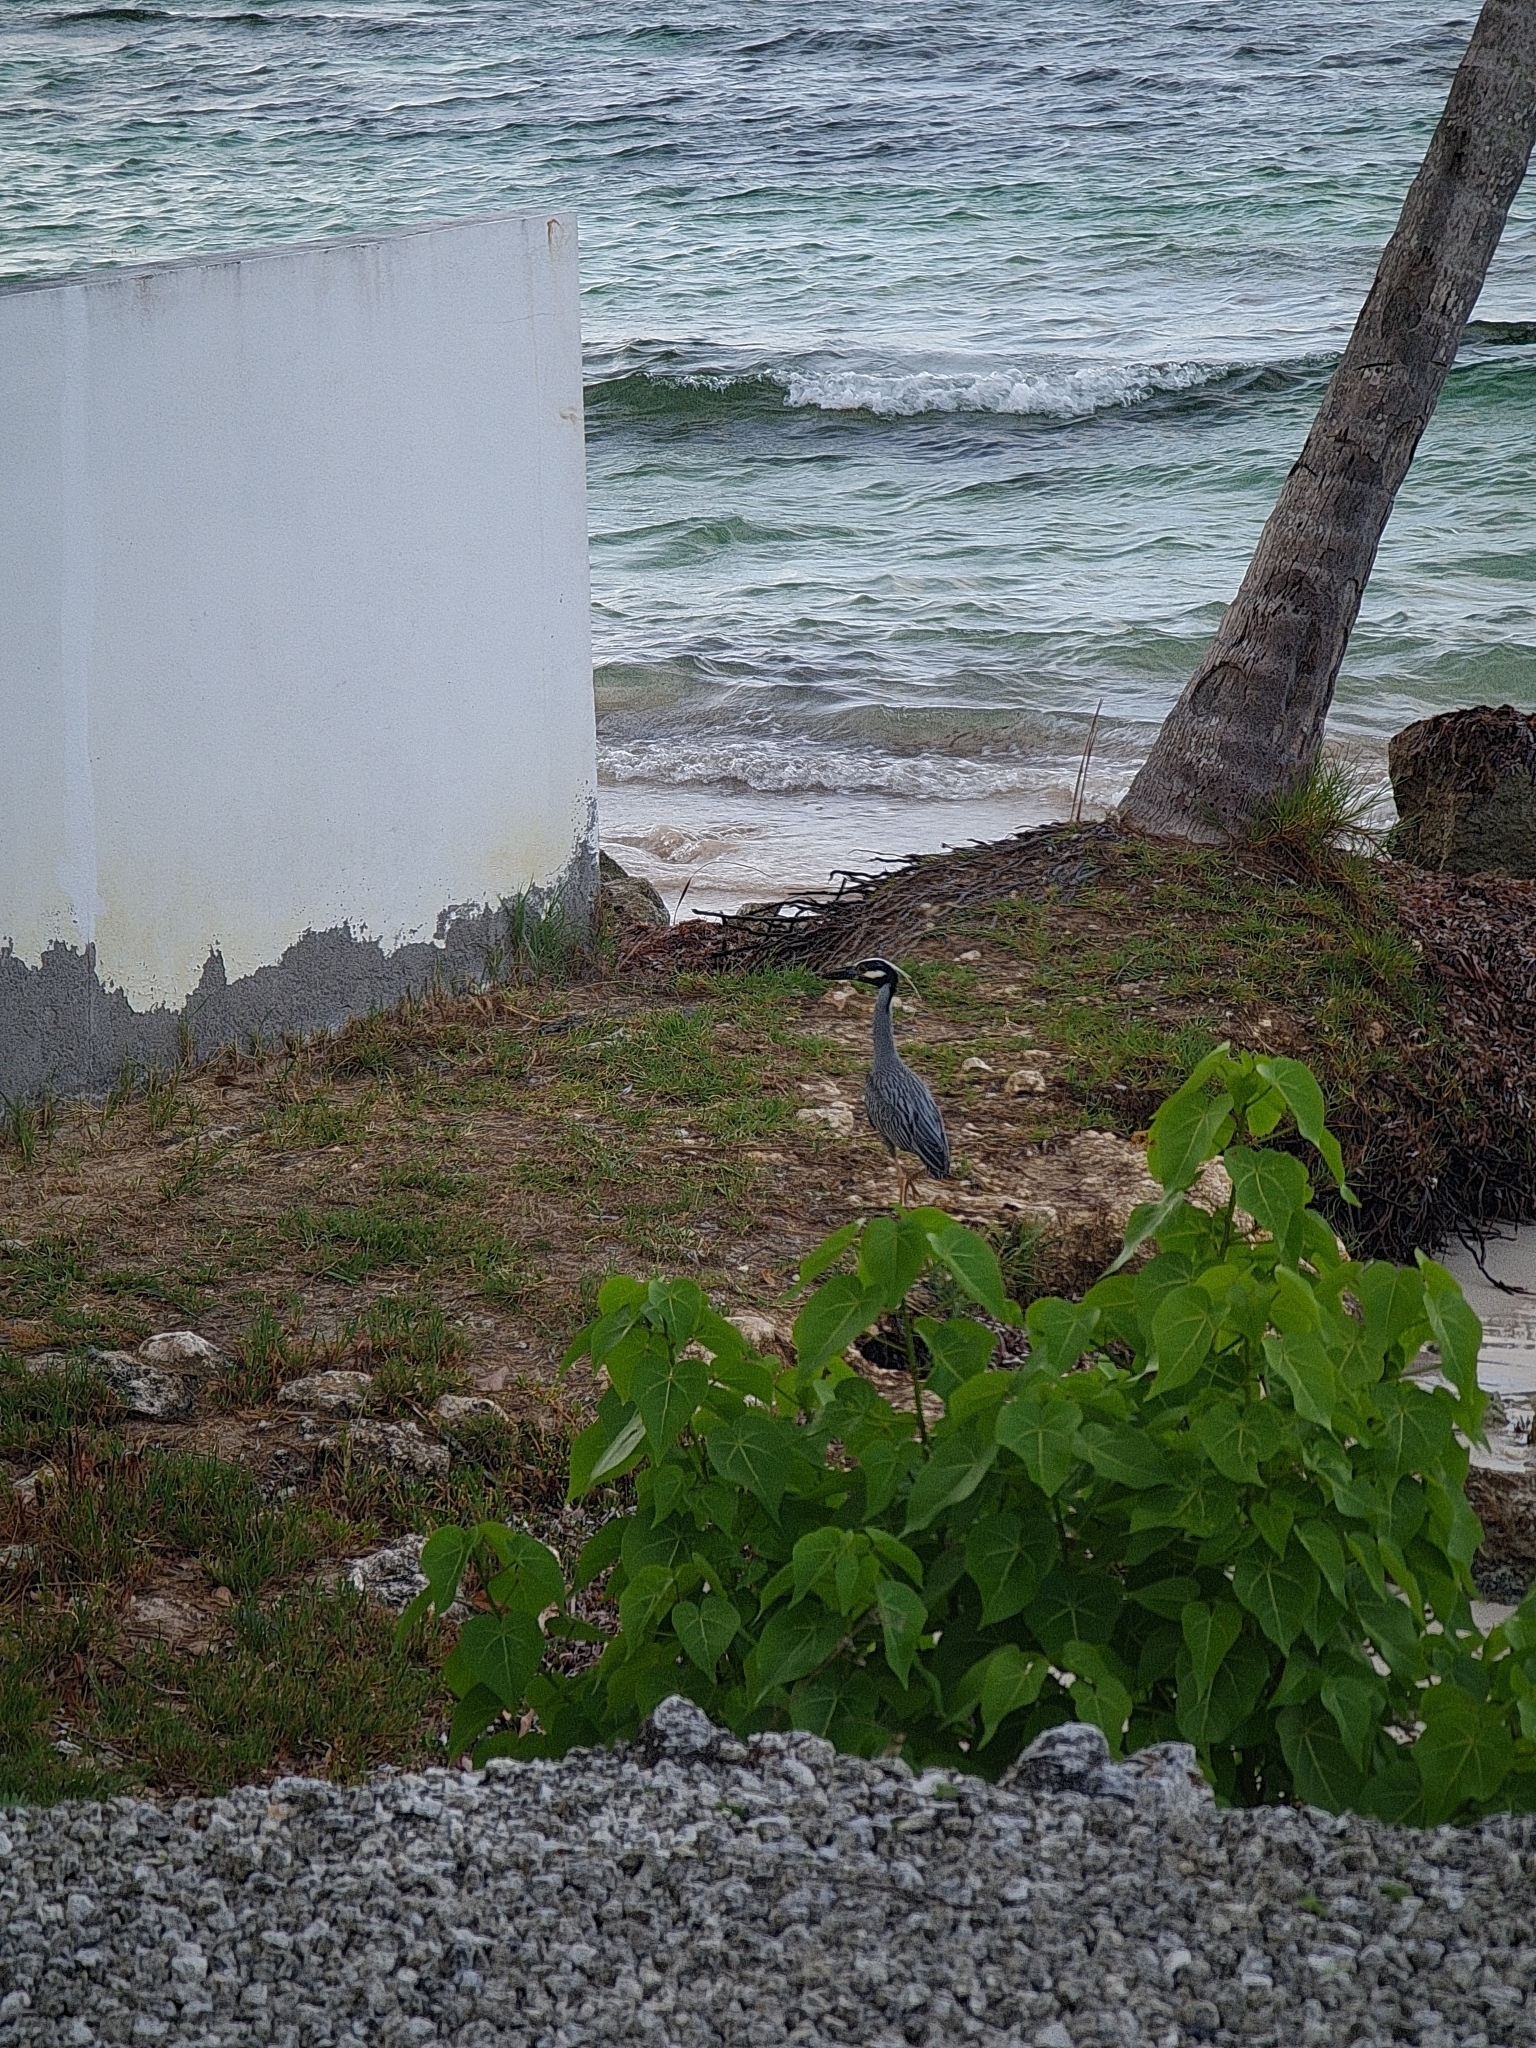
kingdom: Animalia
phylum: Chordata
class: Aves
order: Pelecaniformes
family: Ardeidae
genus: Nyctanassa
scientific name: Nyctanassa violacea
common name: Yellow-crowned night heron
